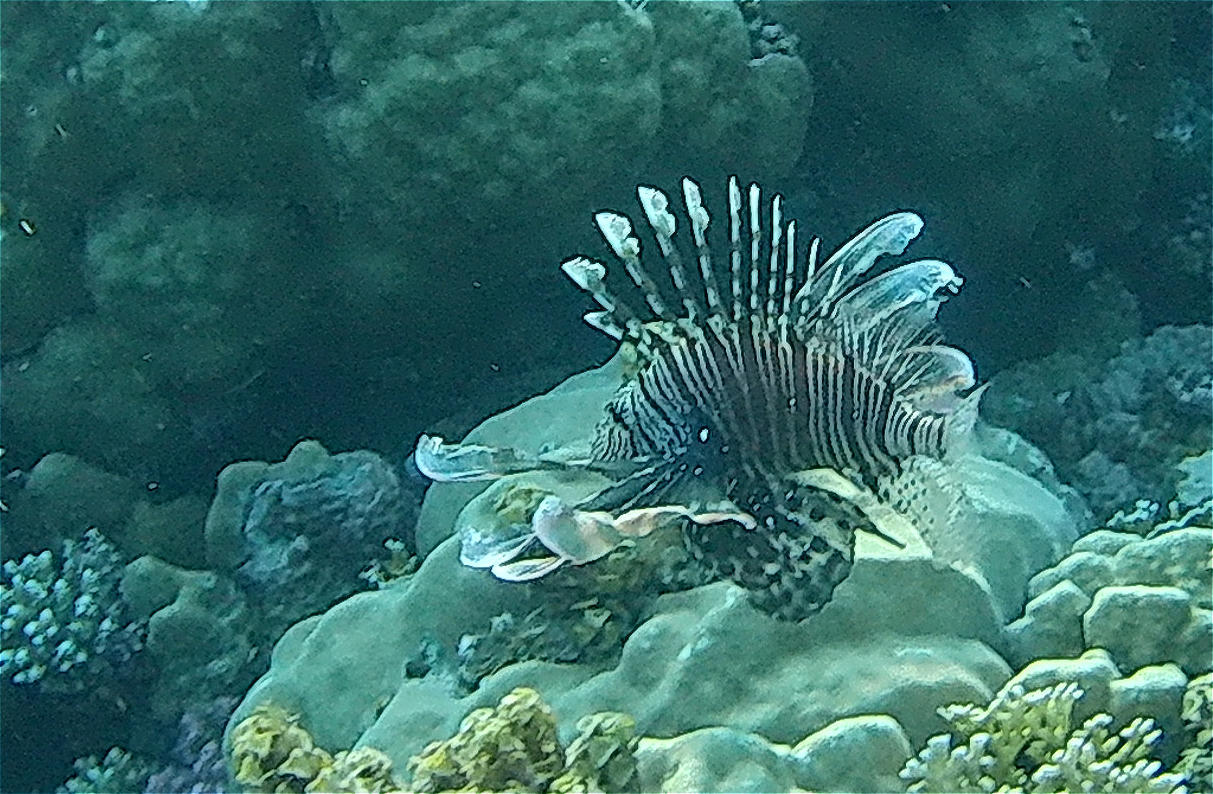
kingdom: Animalia
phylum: Chordata
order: Scorpaeniformes
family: Scorpaenidae
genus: Pterois
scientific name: Pterois miles
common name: Devil firefish
